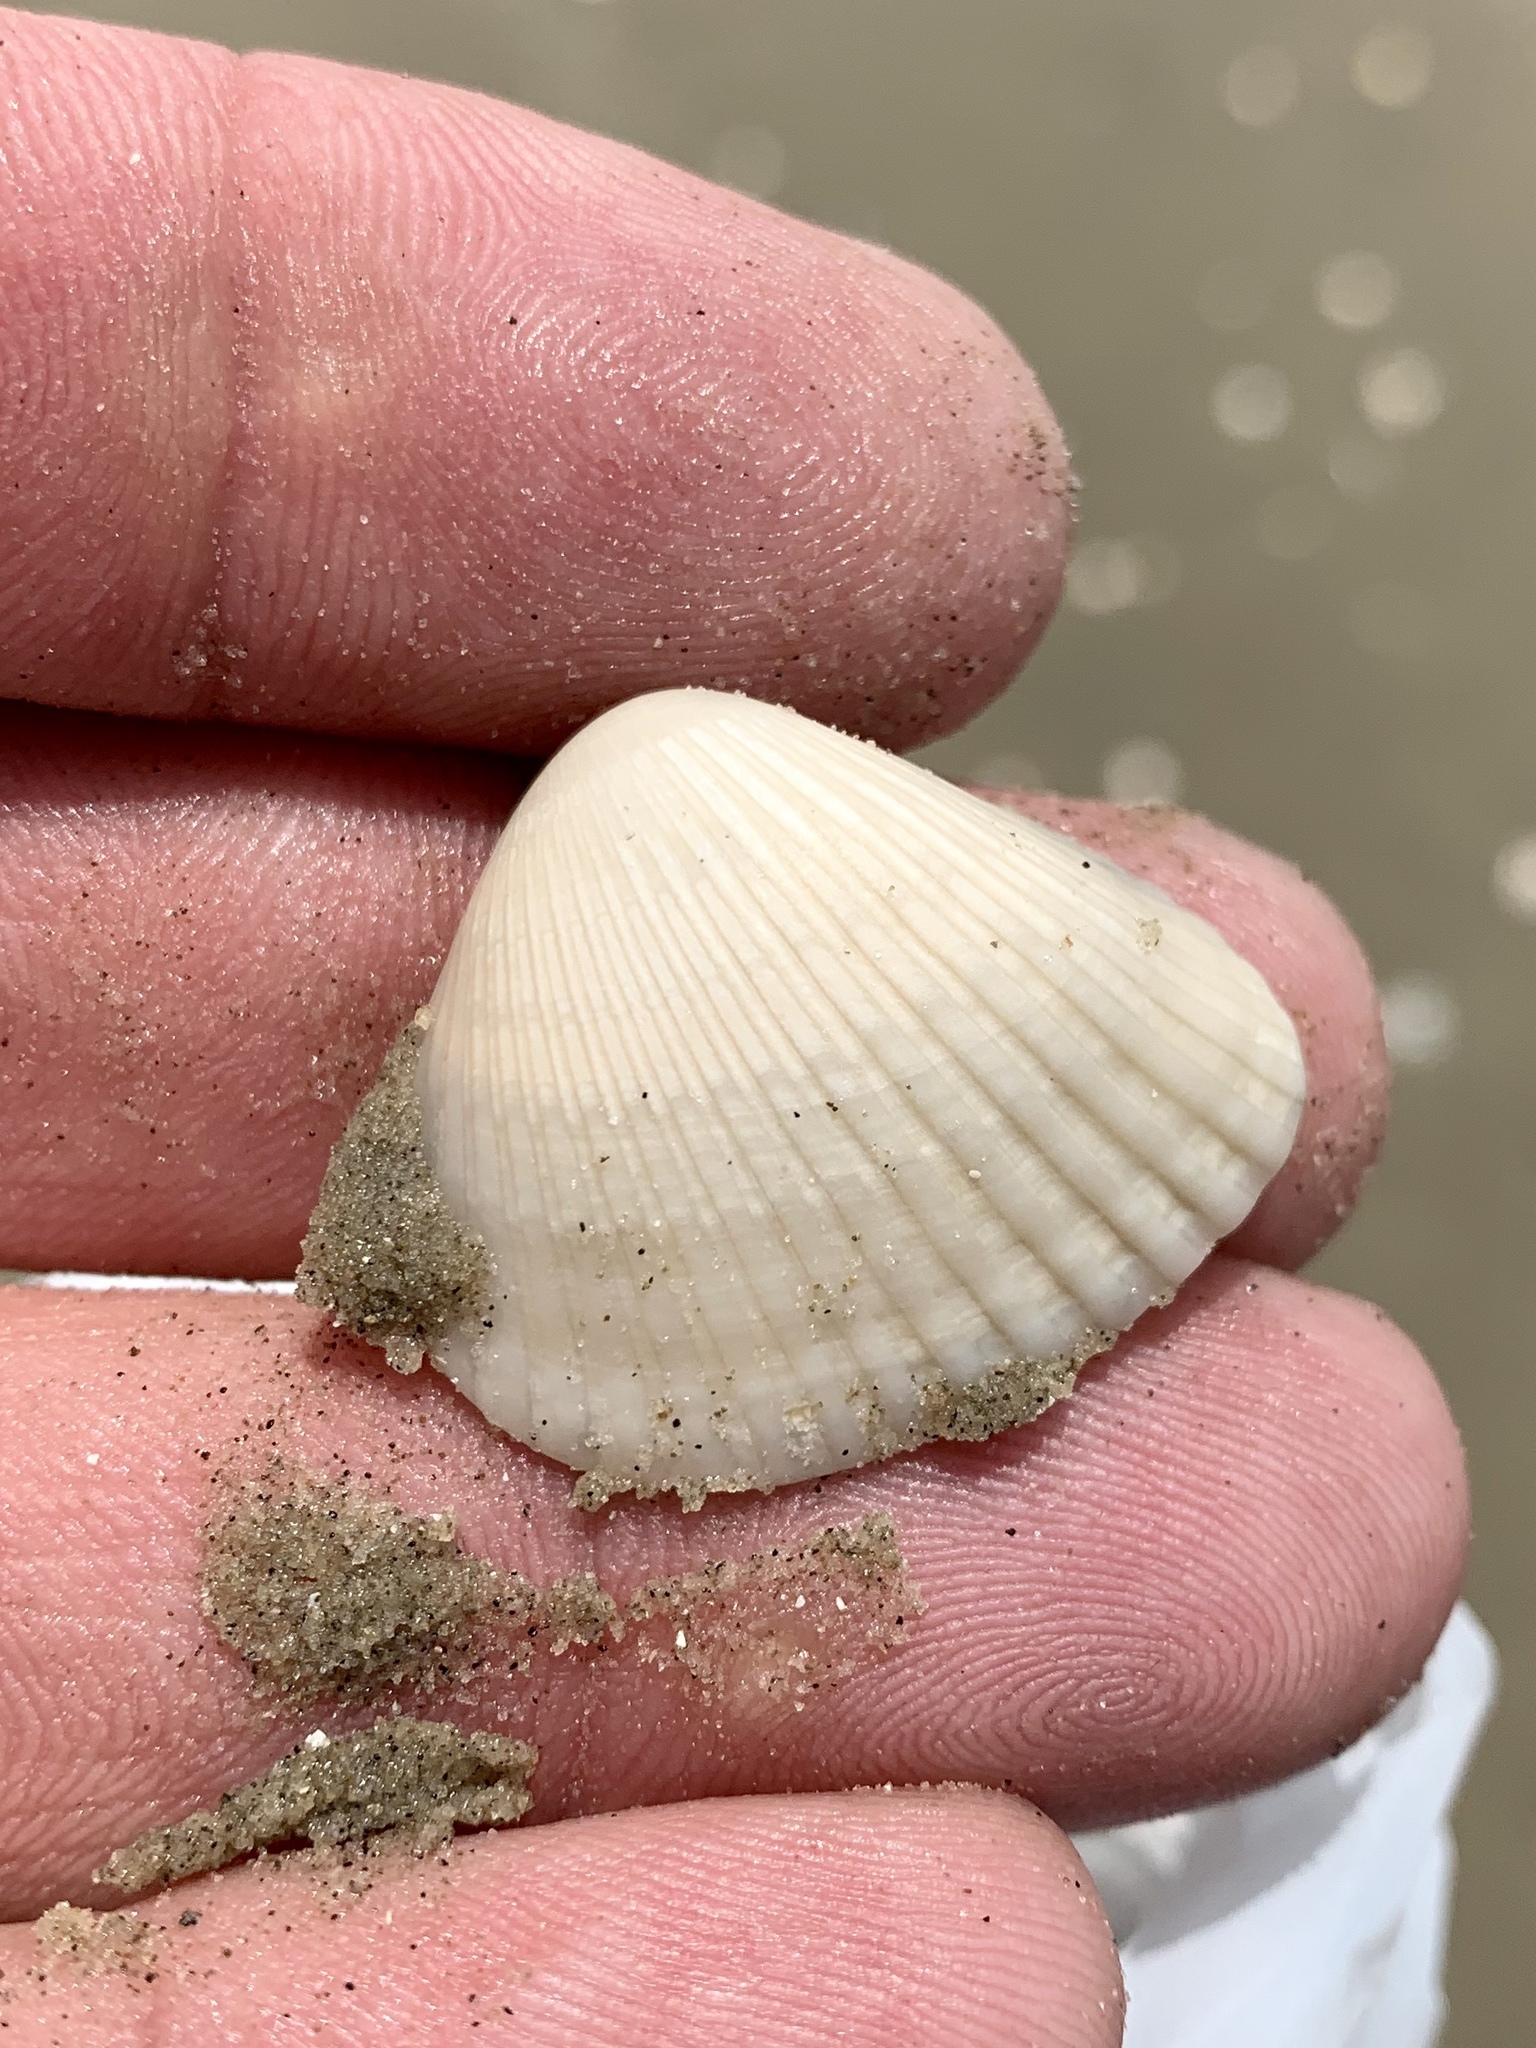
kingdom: Animalia
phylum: Mollusca
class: Bivalvia
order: Arcida
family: Noetiidae
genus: Noetia
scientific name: Noetia ponderosa
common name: Ponderous ark
